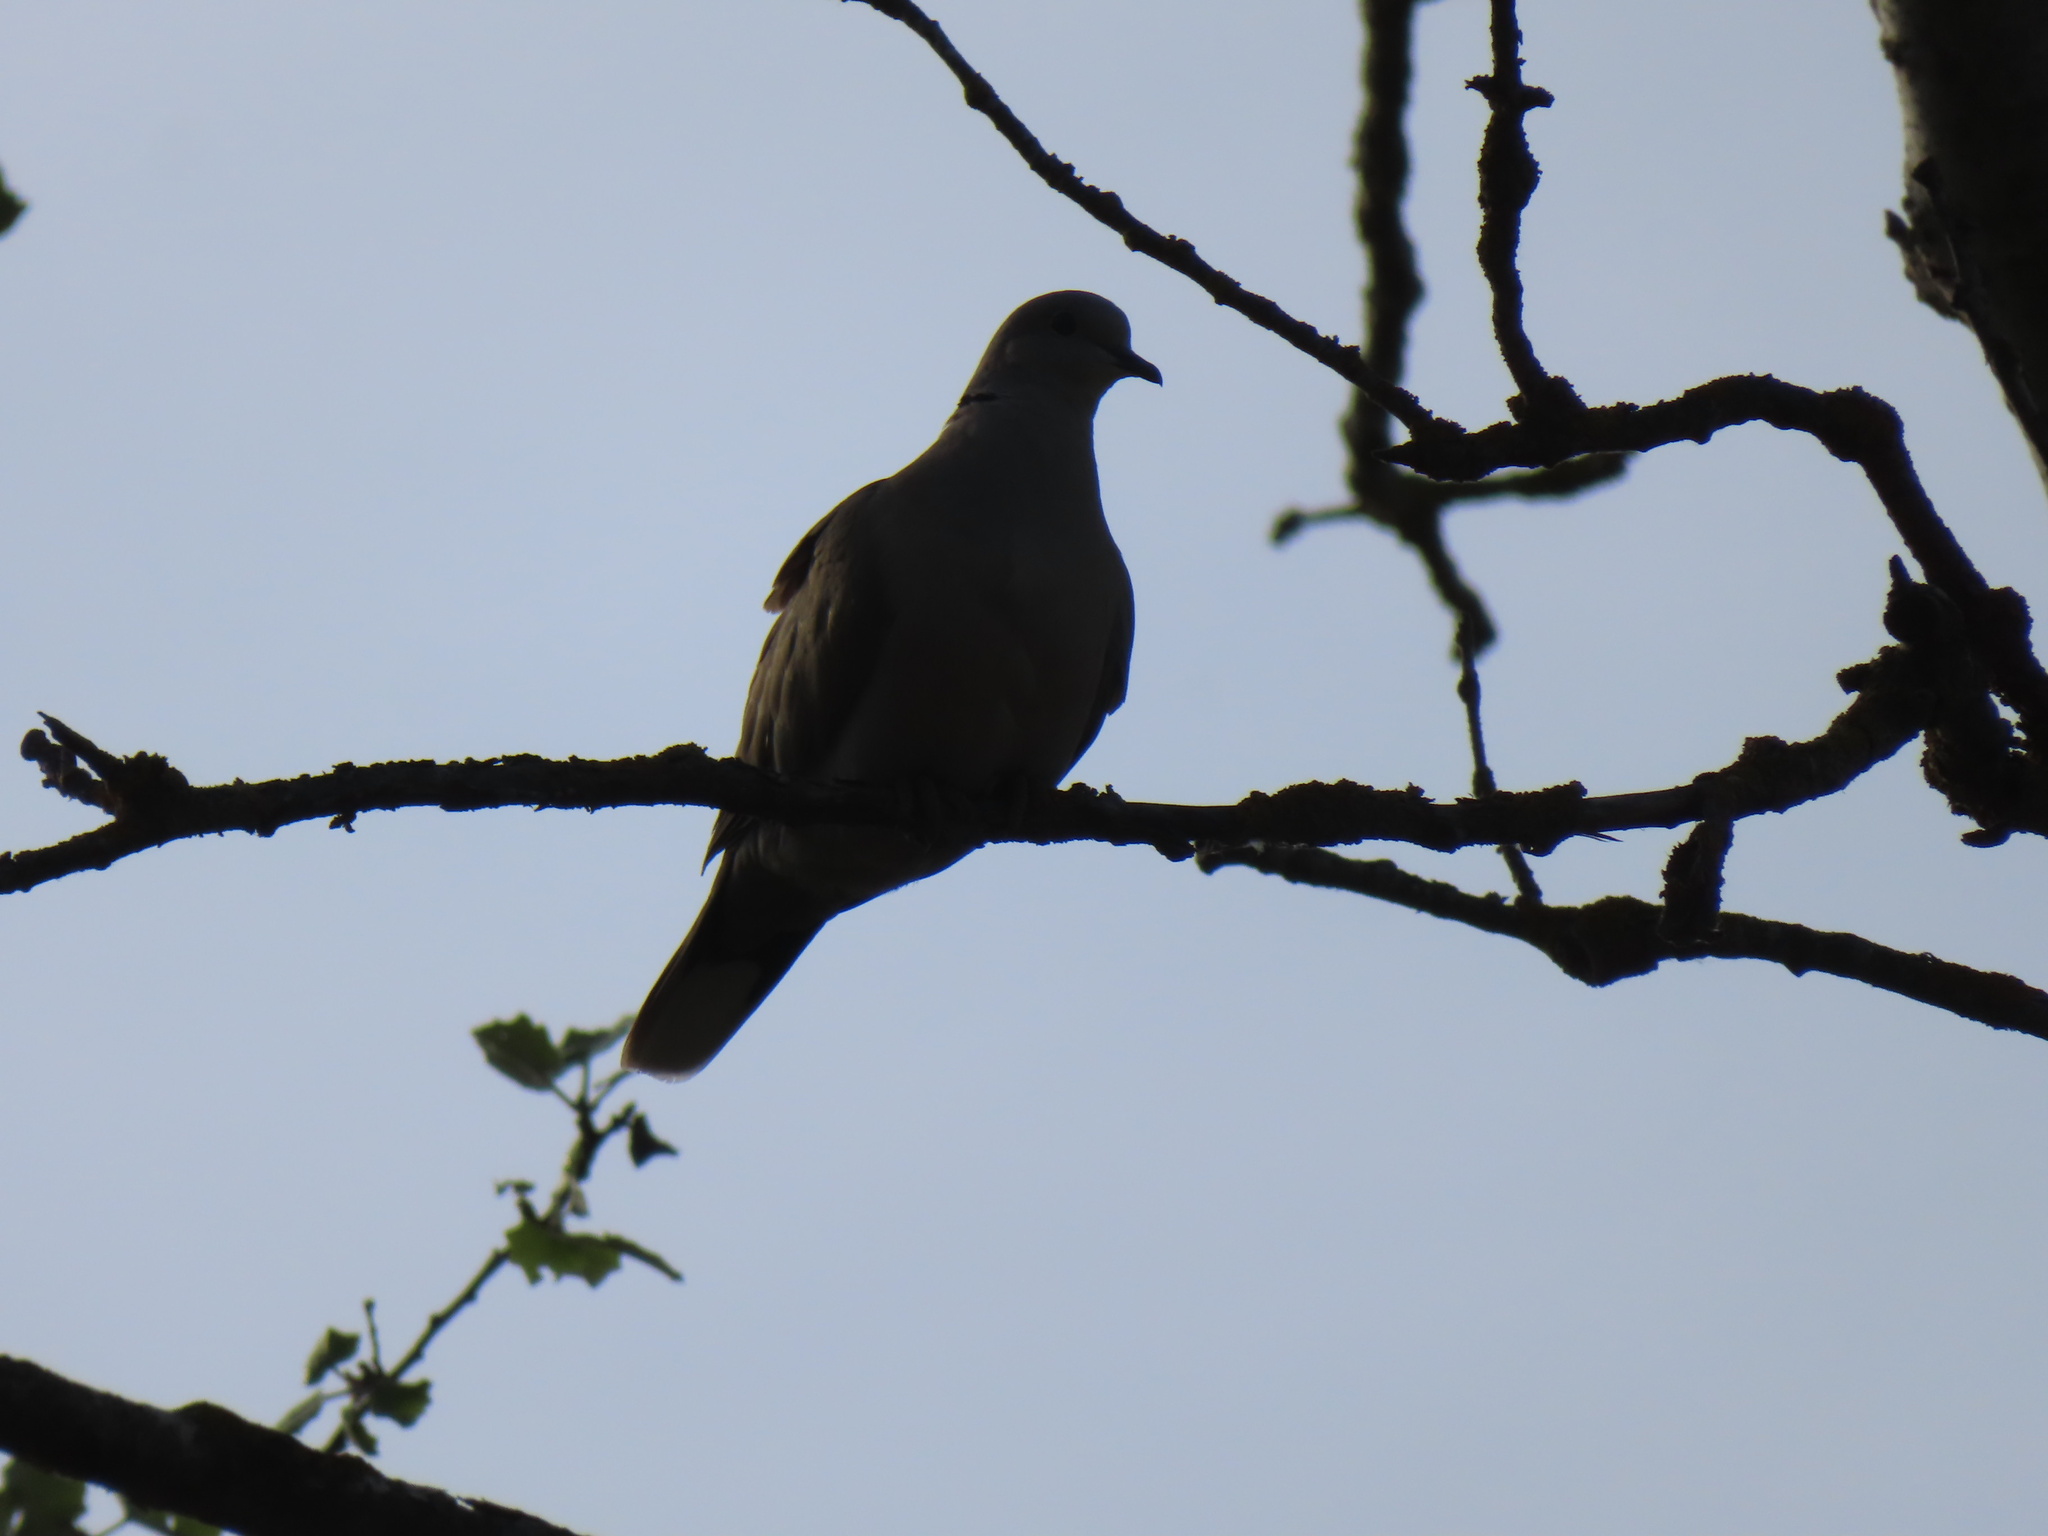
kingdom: Animalia
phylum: Chordata
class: Aves
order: Columbiformes
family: Columbidae
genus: Streptopelia
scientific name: Streptopelia decaocto
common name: Eurasian collared dove
